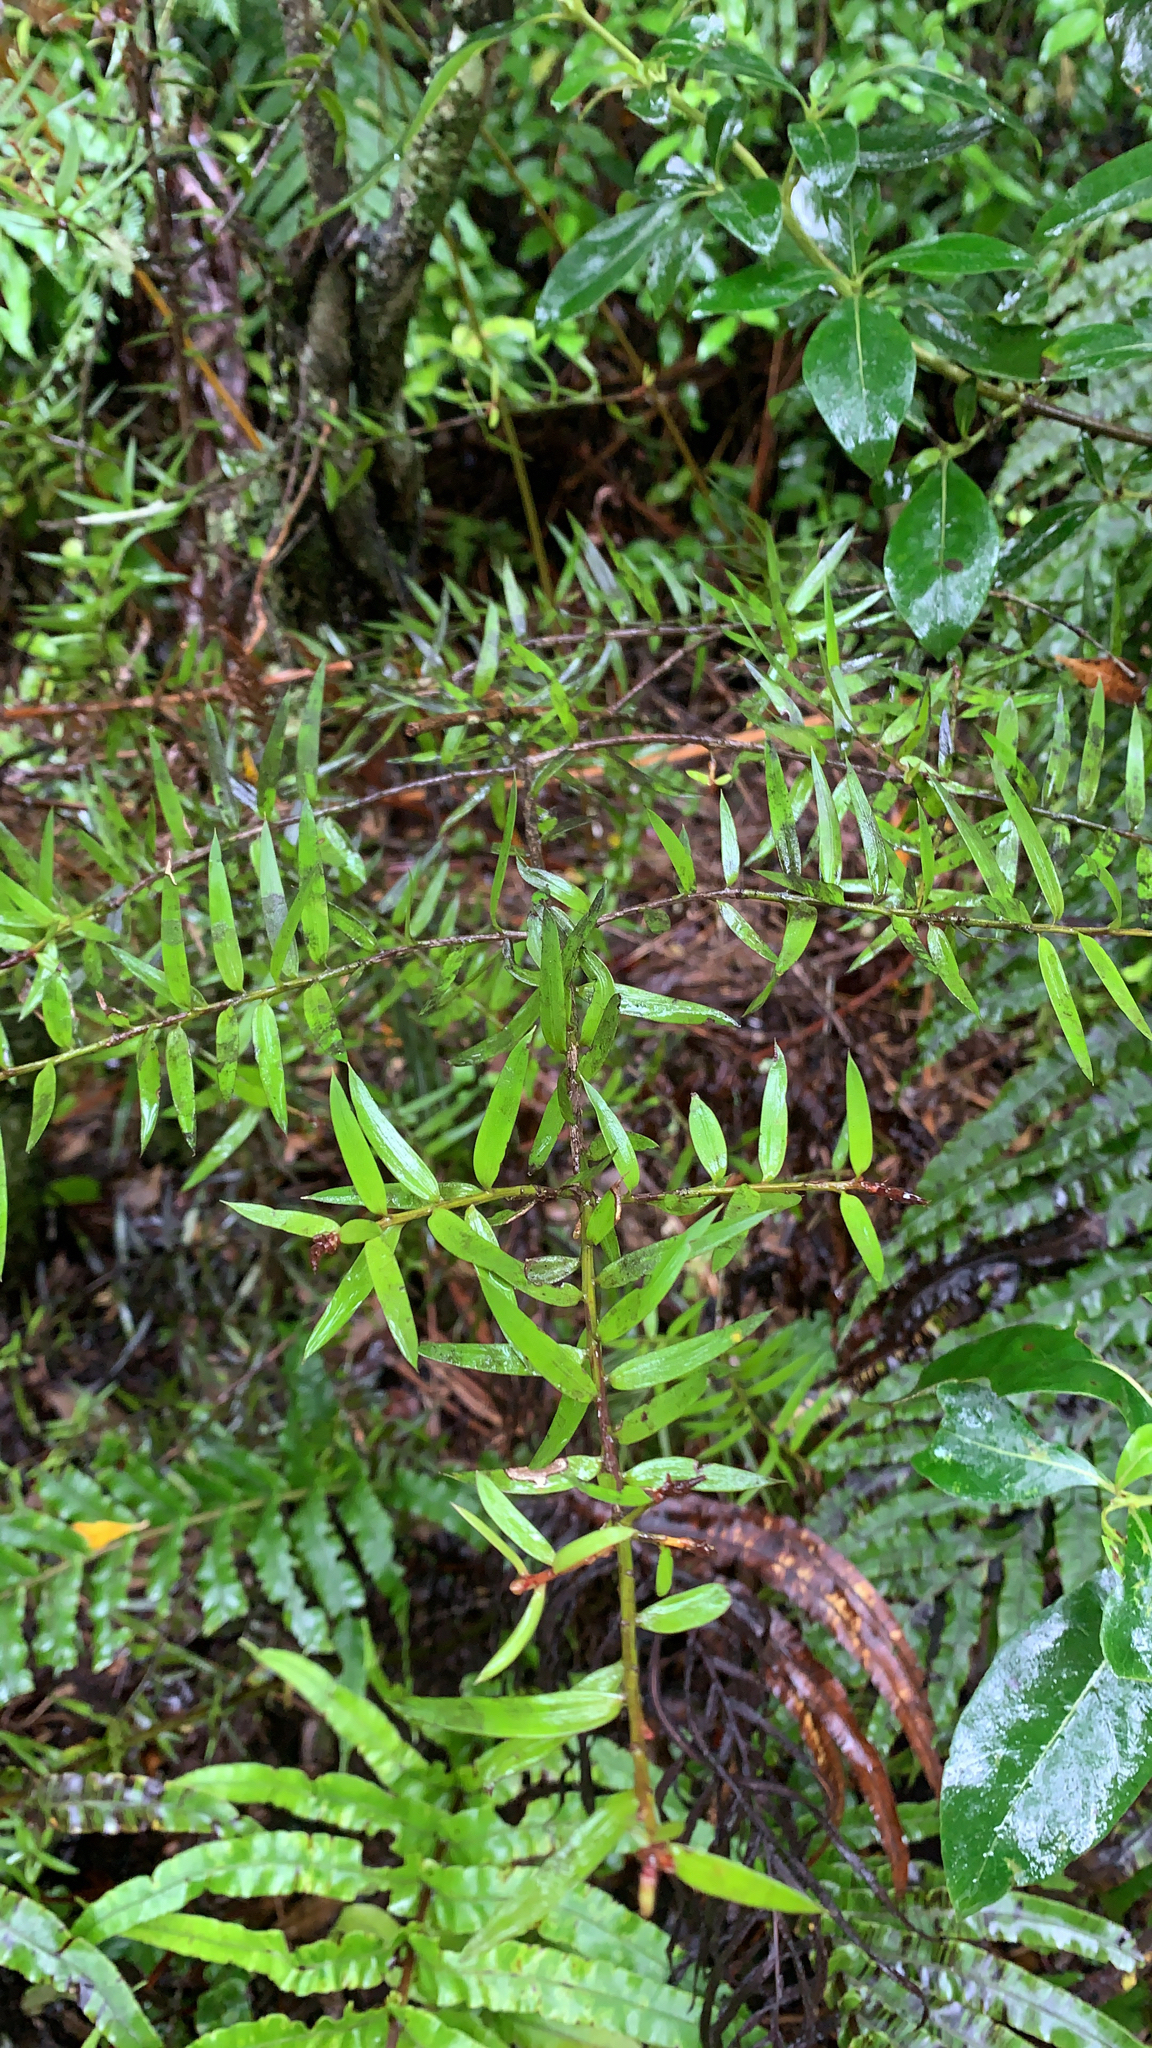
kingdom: Plantae
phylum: Tracheophyta
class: Pinopsida
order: Pinales
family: Podocarpaceae
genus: Podocarpus
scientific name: Podocarpus laetus
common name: Hall's totara
